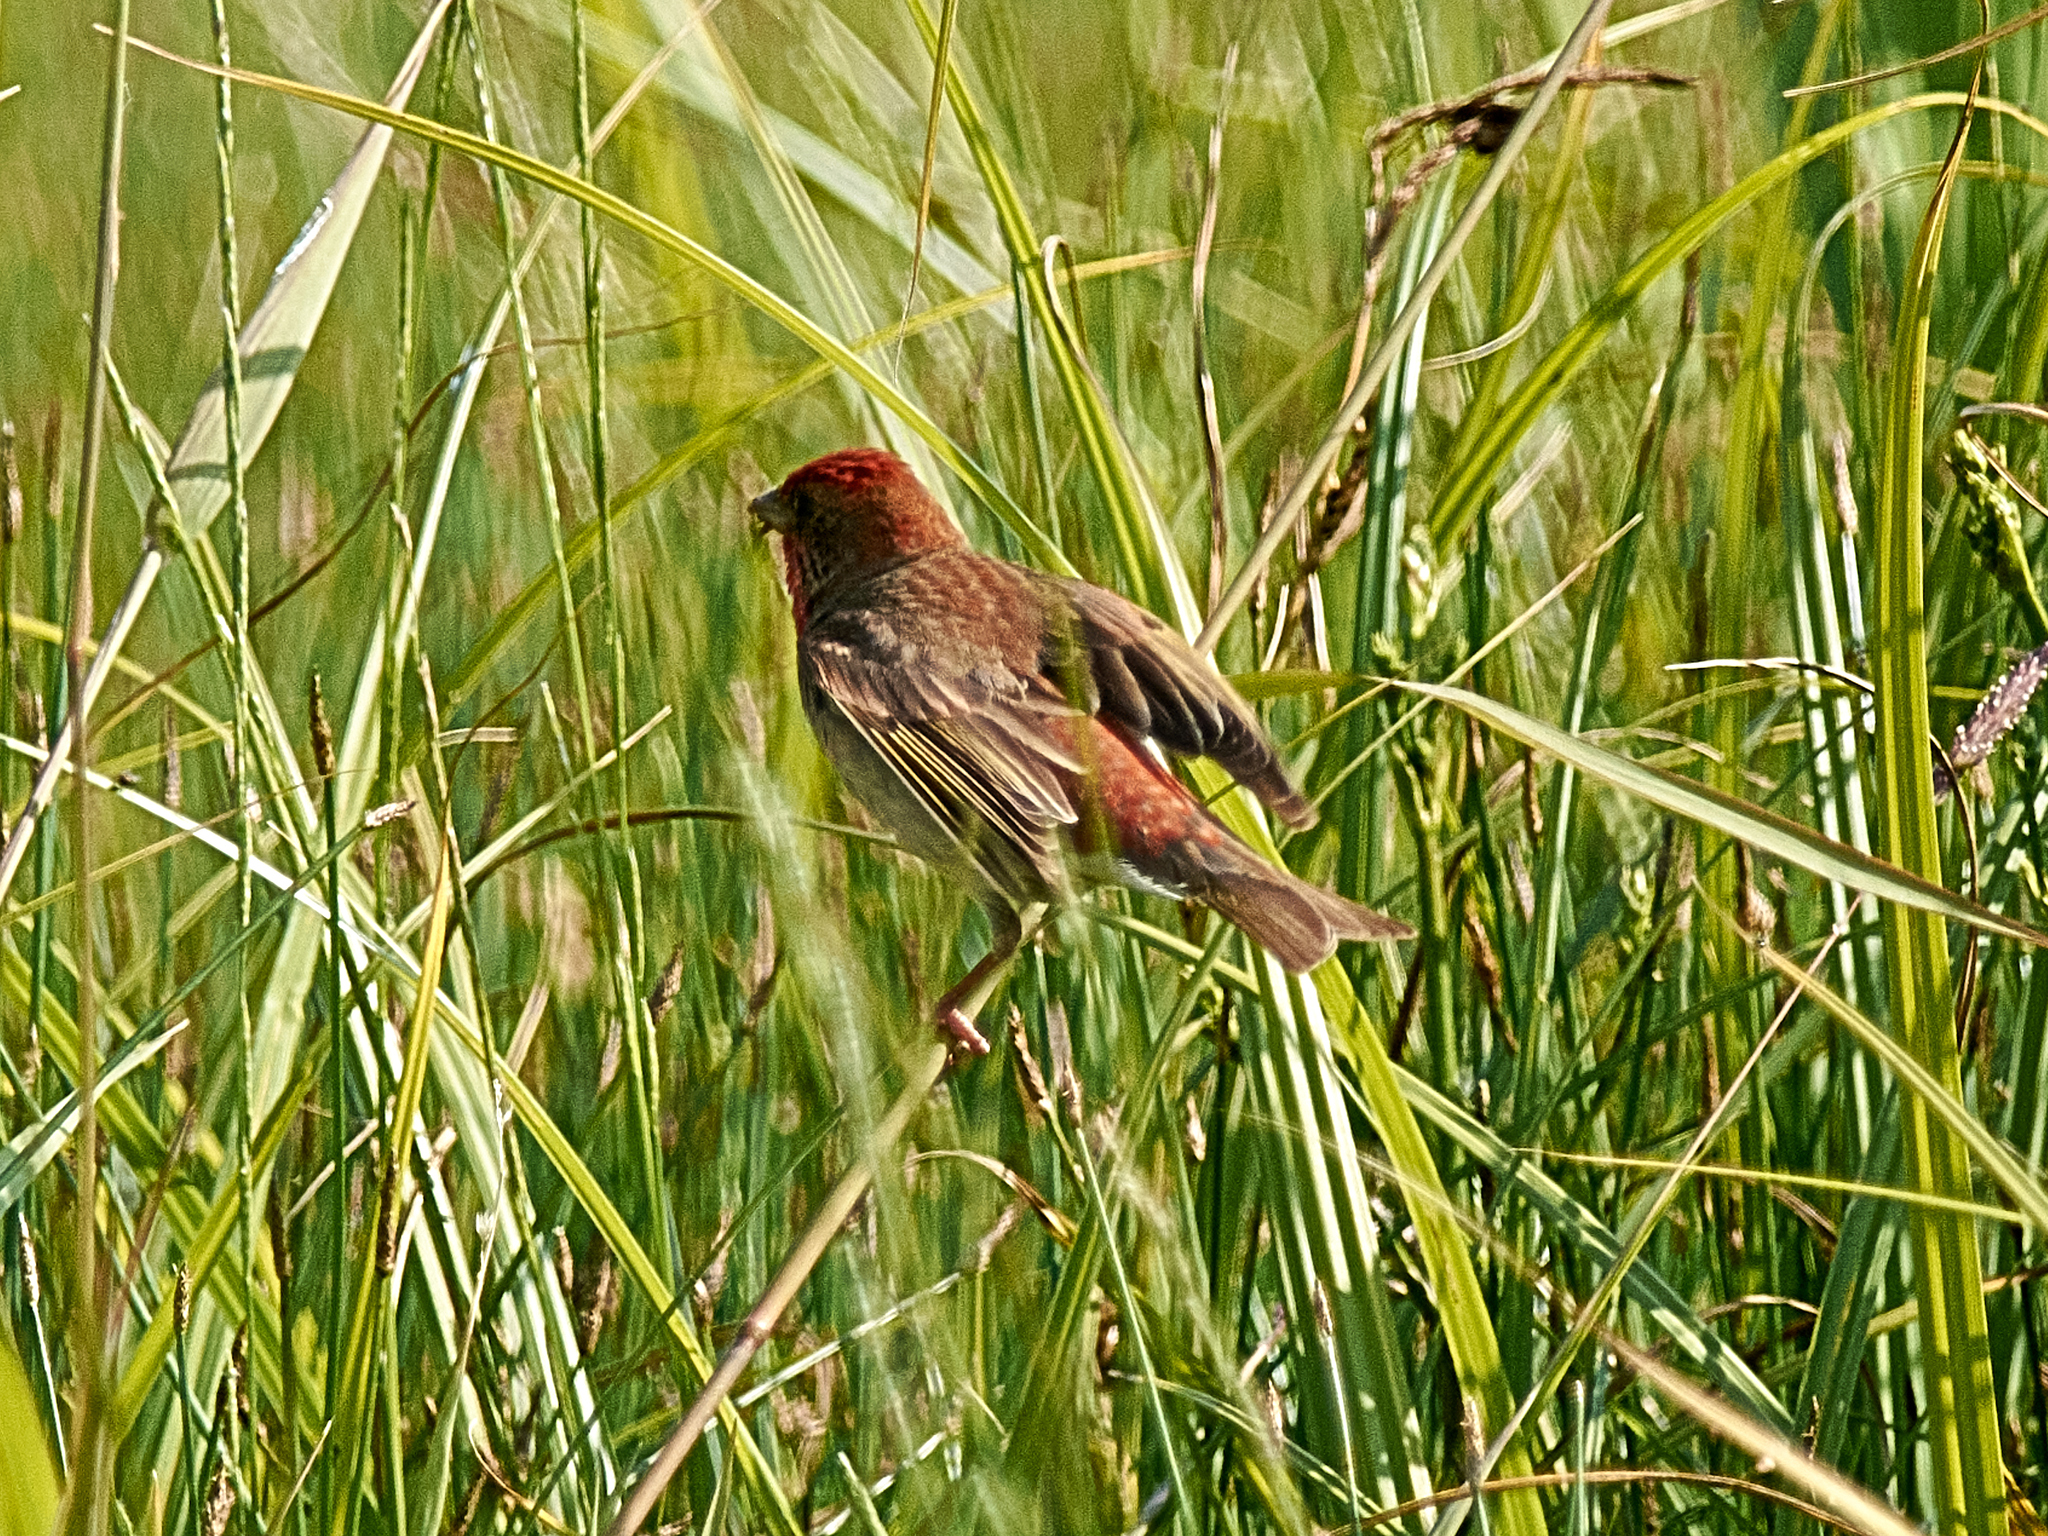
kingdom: Animalia
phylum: Chordata
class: Aves
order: Passeriformes
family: Fringillidae
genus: Carpodacus
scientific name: Carpodacus erythrinus
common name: Common rosefinch
